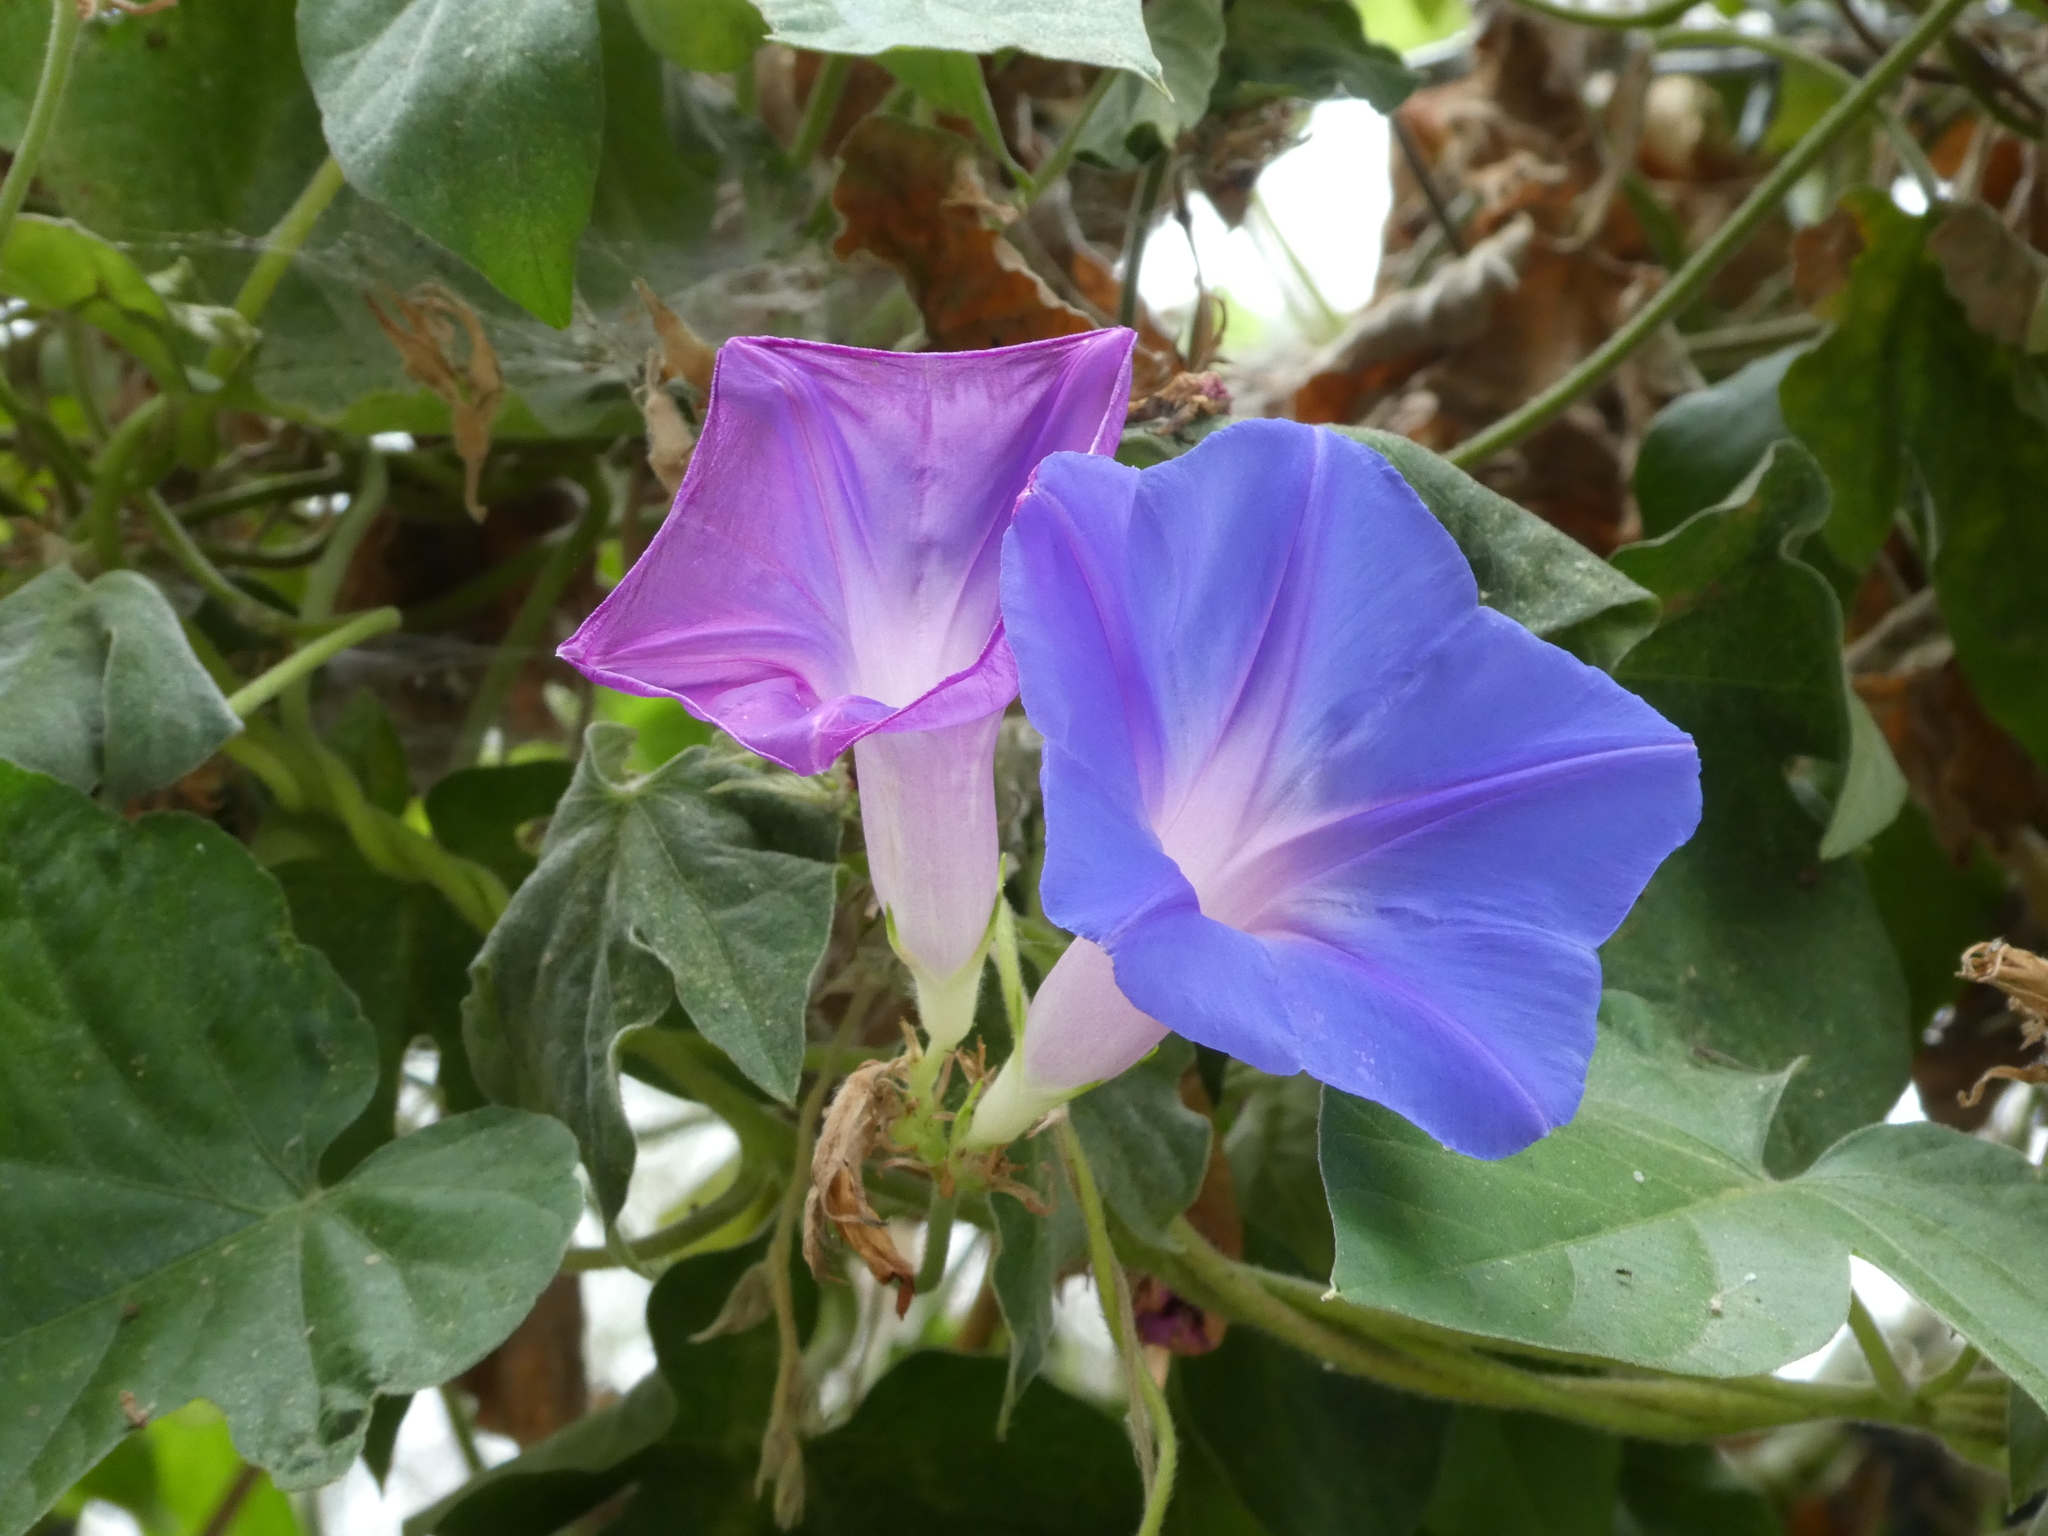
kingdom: Plantae
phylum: Tracheophyta
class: Magnoliopsida
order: Solanales
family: Convolvulaceae
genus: Ipomoea
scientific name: Ipomoea indica
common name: Blue dawnflower
